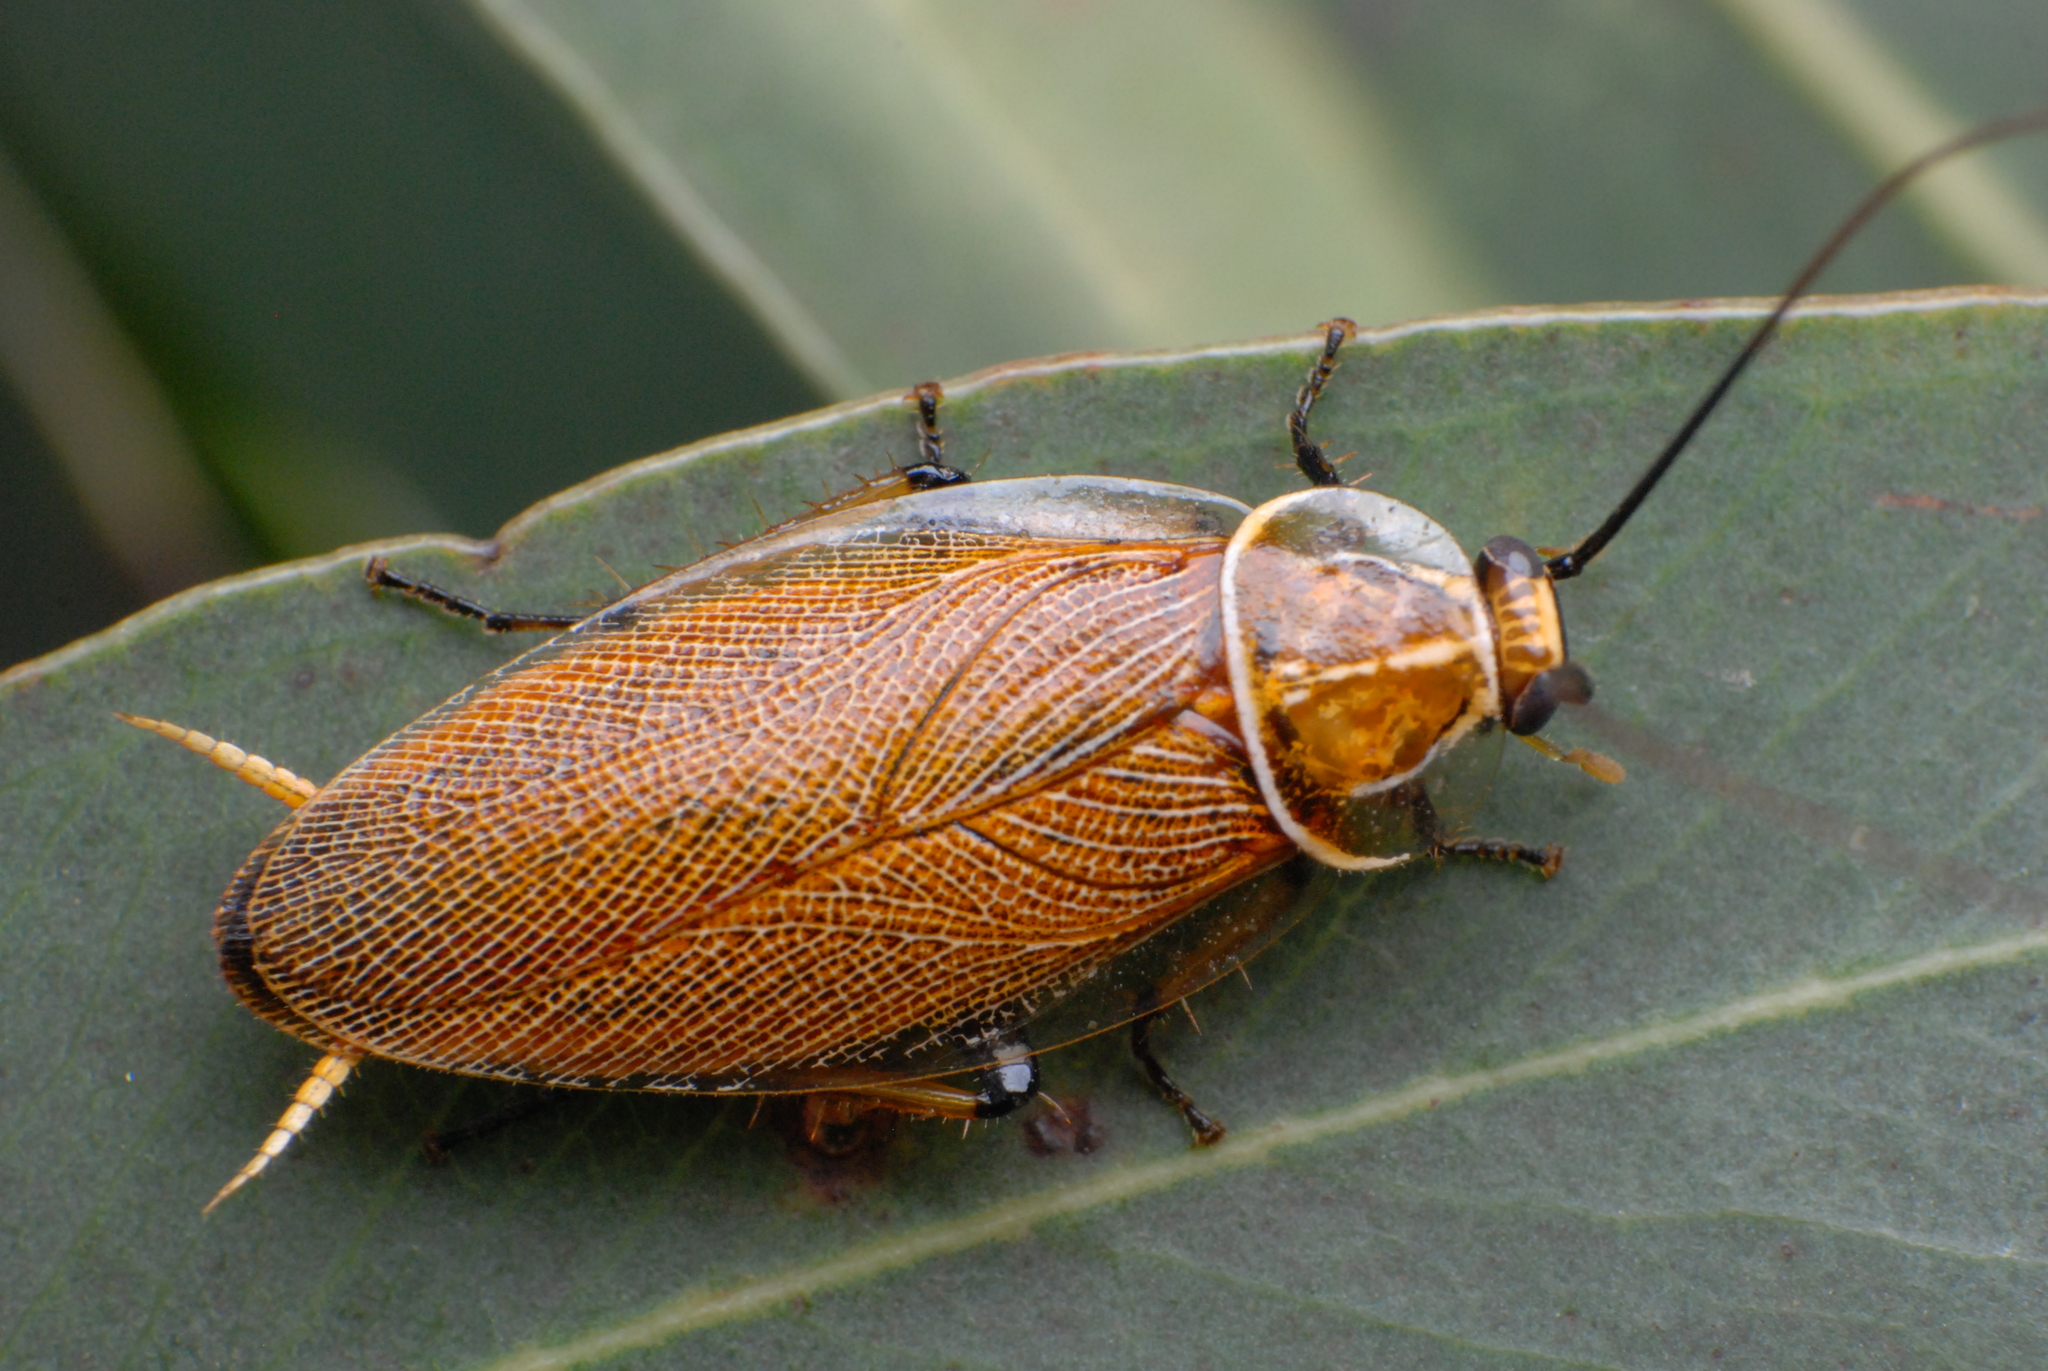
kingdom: Animalia
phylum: Arthropoda
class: Insecta
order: Blattodea
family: Ectobiidae
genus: Balta
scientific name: Balta bicolor
